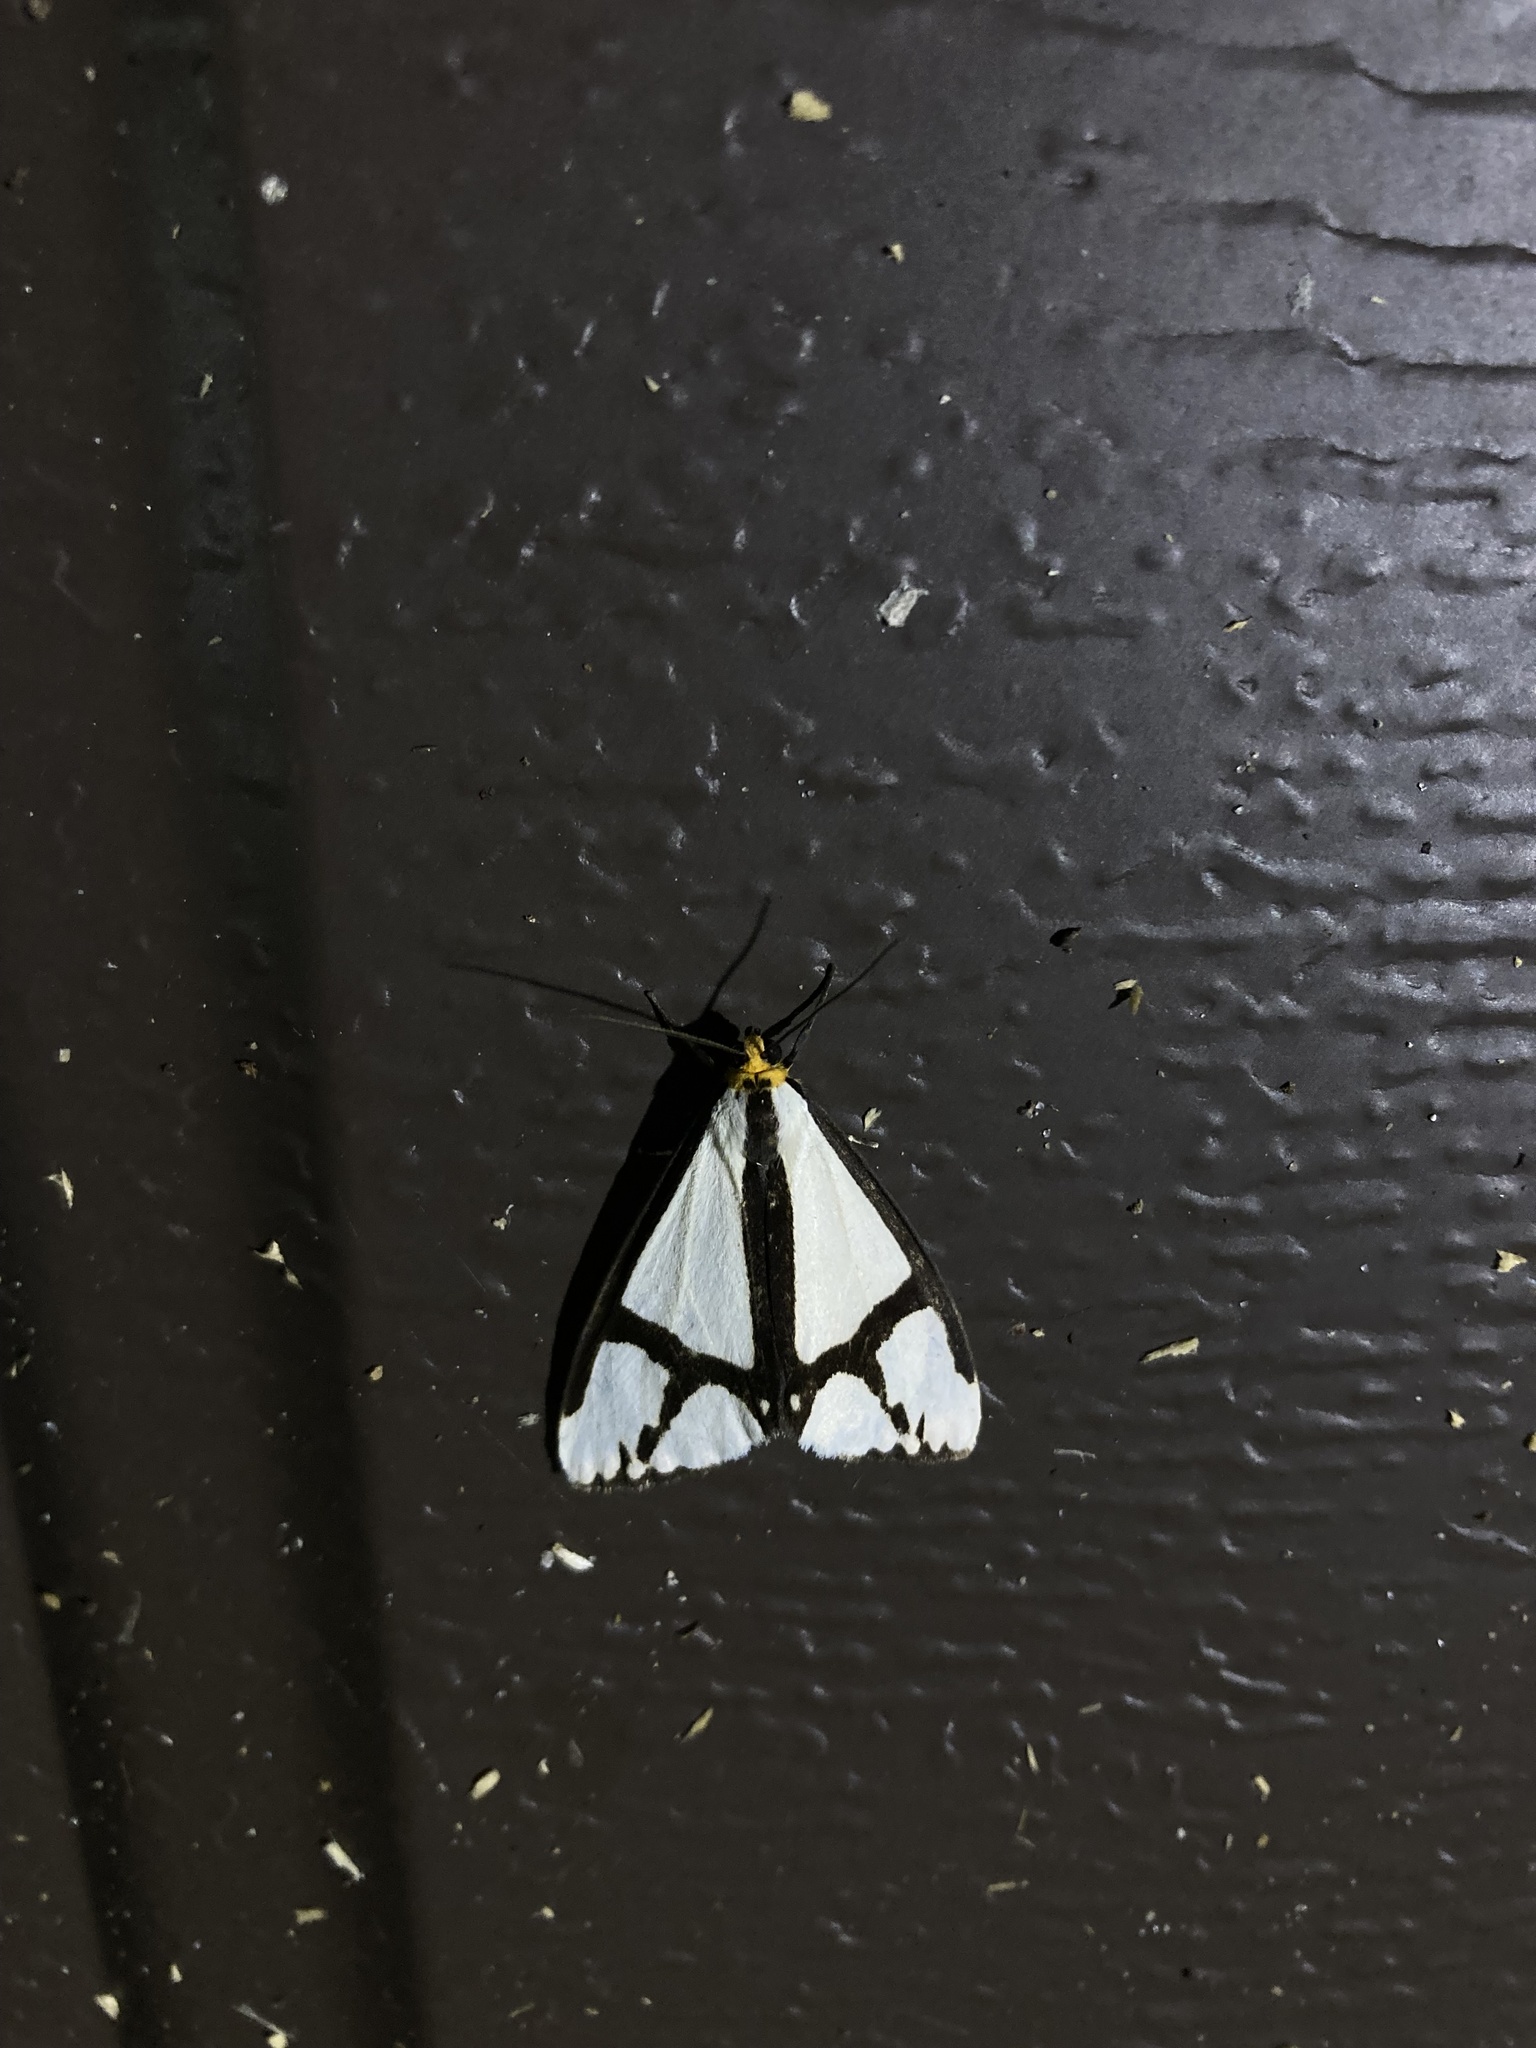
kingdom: Animalia
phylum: Arthropoda
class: Insecta
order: Lepidoptera
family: Erebidae
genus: Haploa
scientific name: Haploa contigua
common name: Neighbor moth
